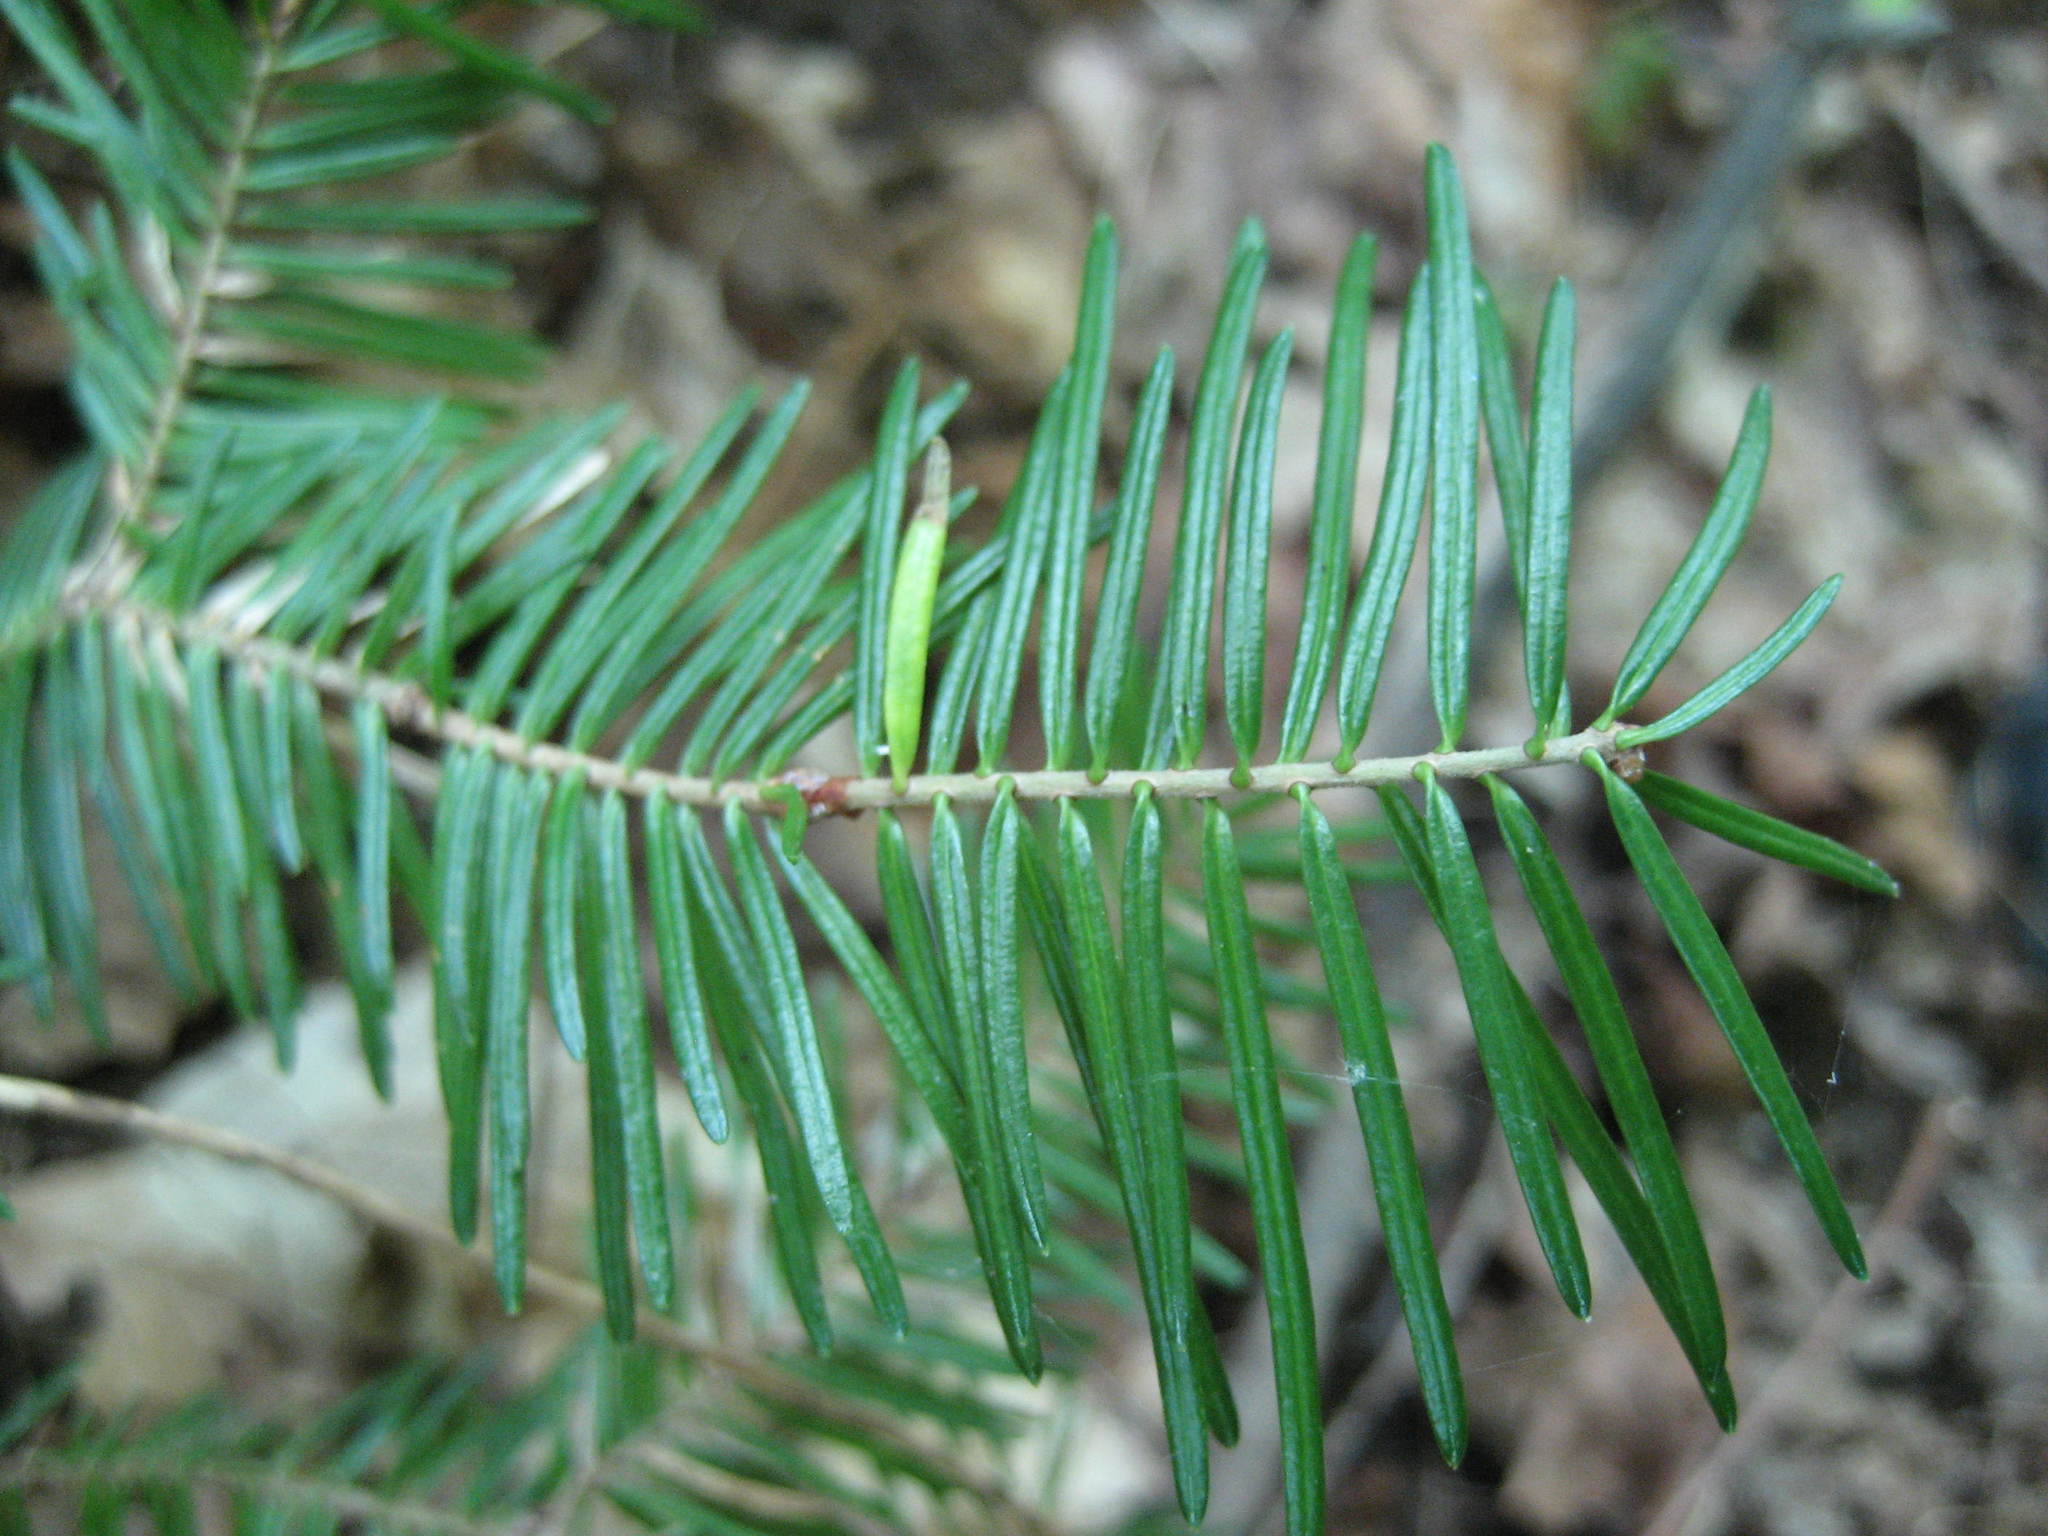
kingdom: Plantae
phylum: Tracheophyta
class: Pinopsida
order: Pinales
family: Pinaceae
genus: Abies
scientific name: Abies balsamea
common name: Balsam fir
